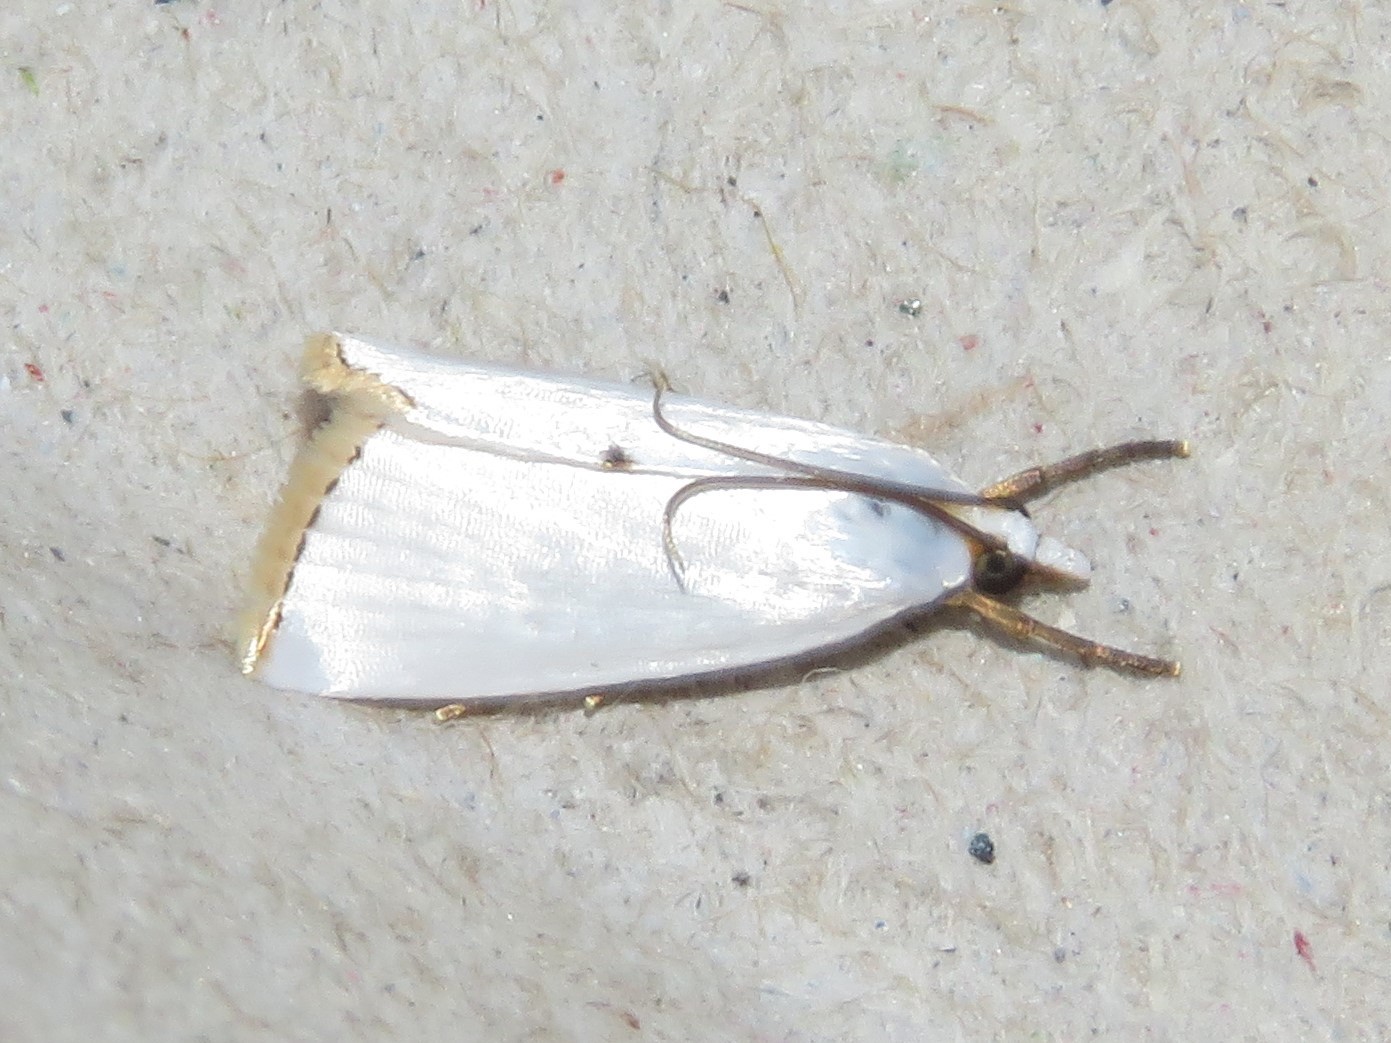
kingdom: Animalia
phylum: Arthropoda
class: Insecta
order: Lepidoptera
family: Crambidae
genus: Argyria
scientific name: Argyria nivalis
